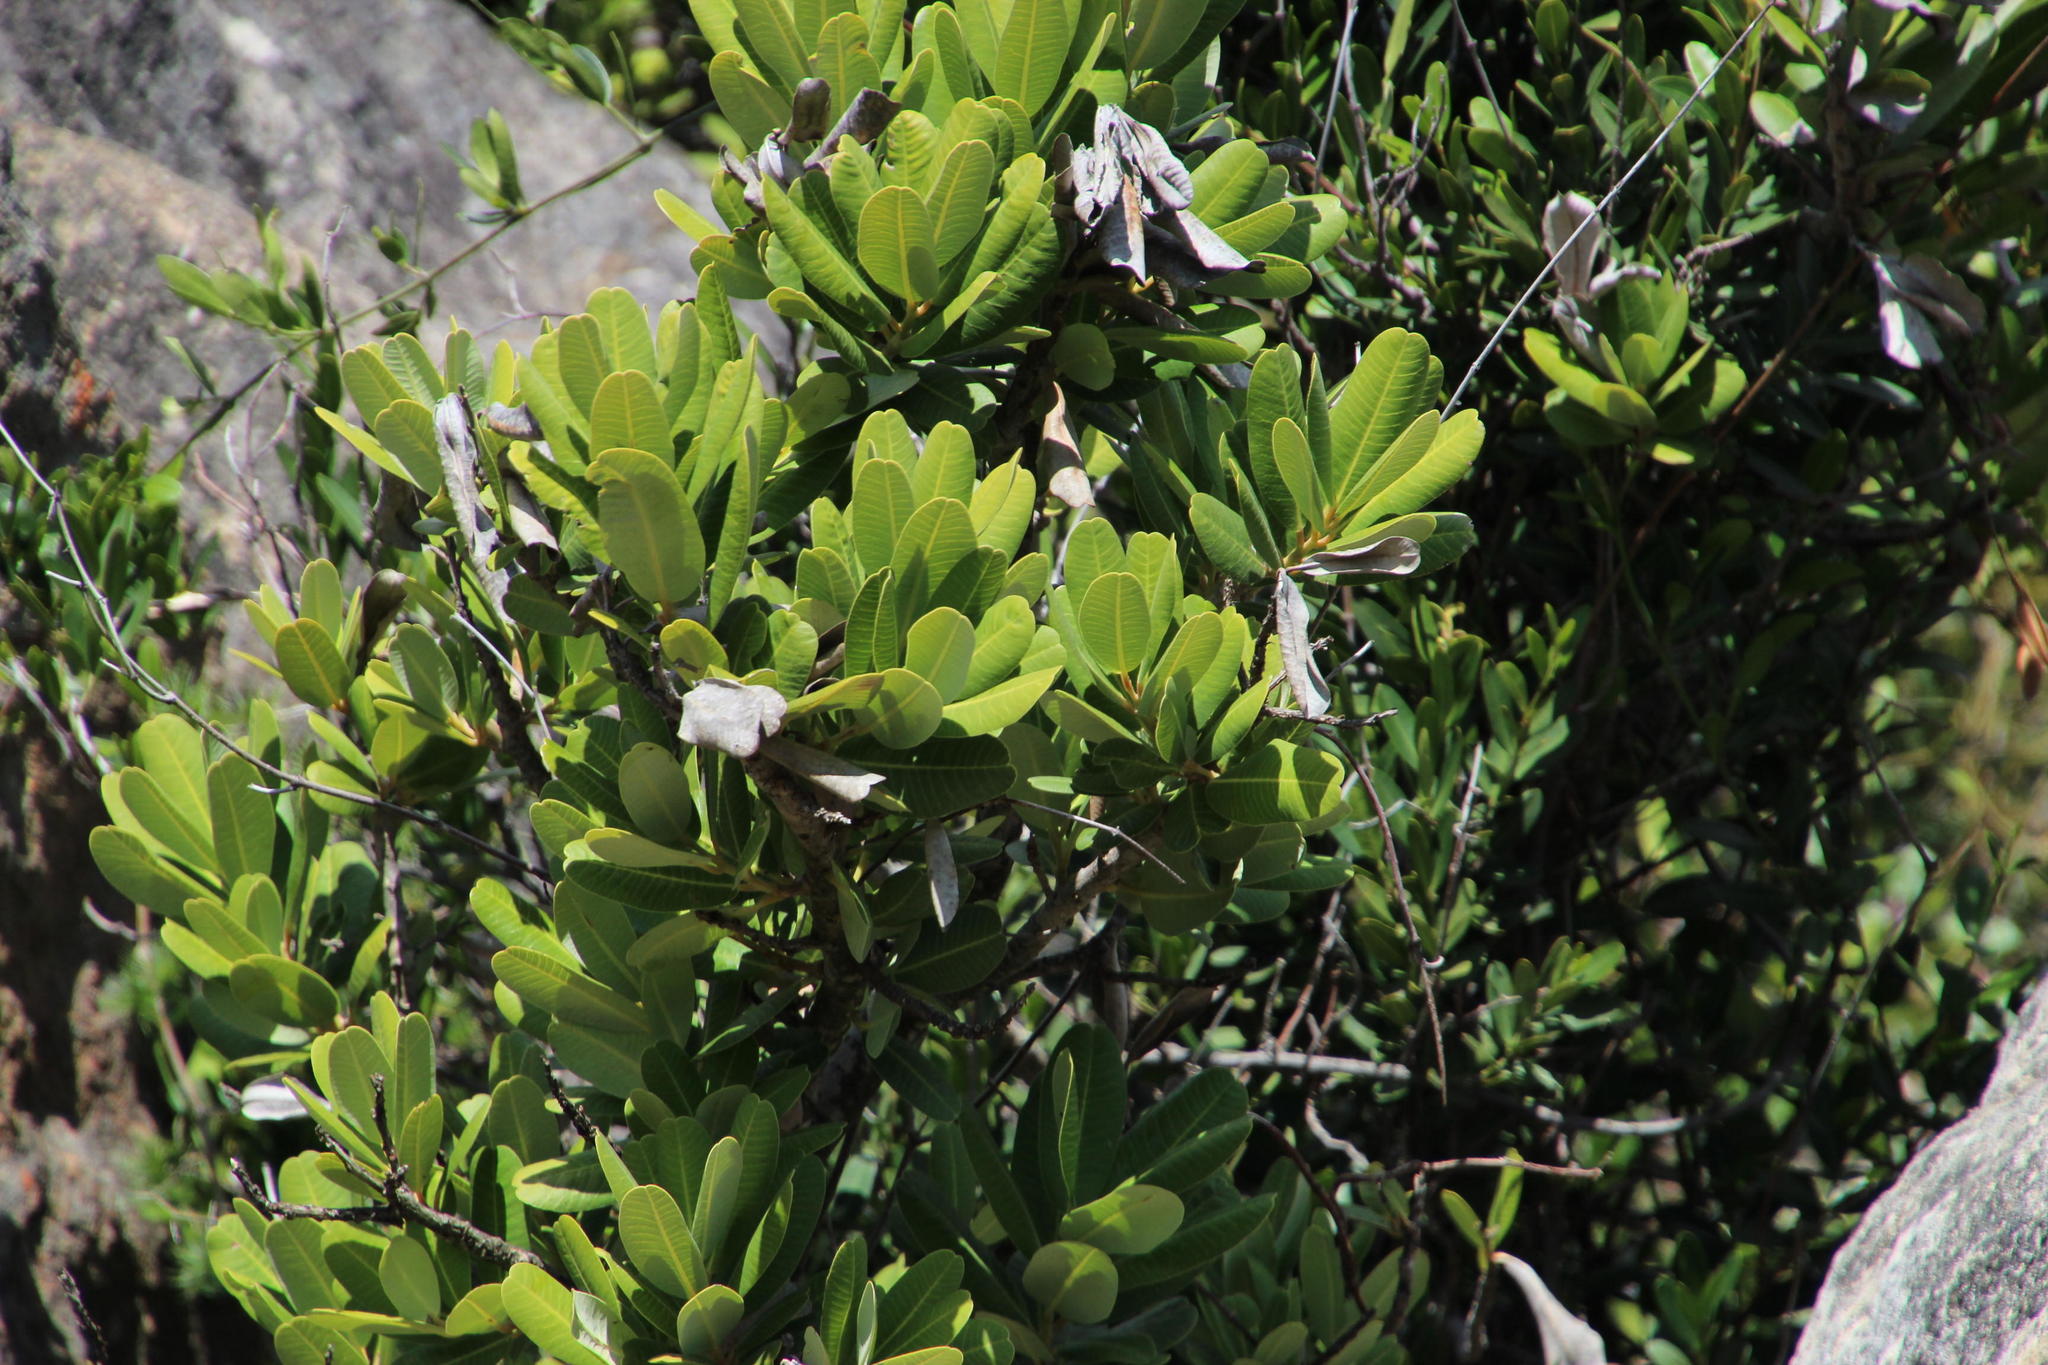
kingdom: Plantae
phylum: Tracheophyta
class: Magnoliopsida
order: Sapindales
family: Anacardiaceae
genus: Heeria
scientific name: Heeria argentea
